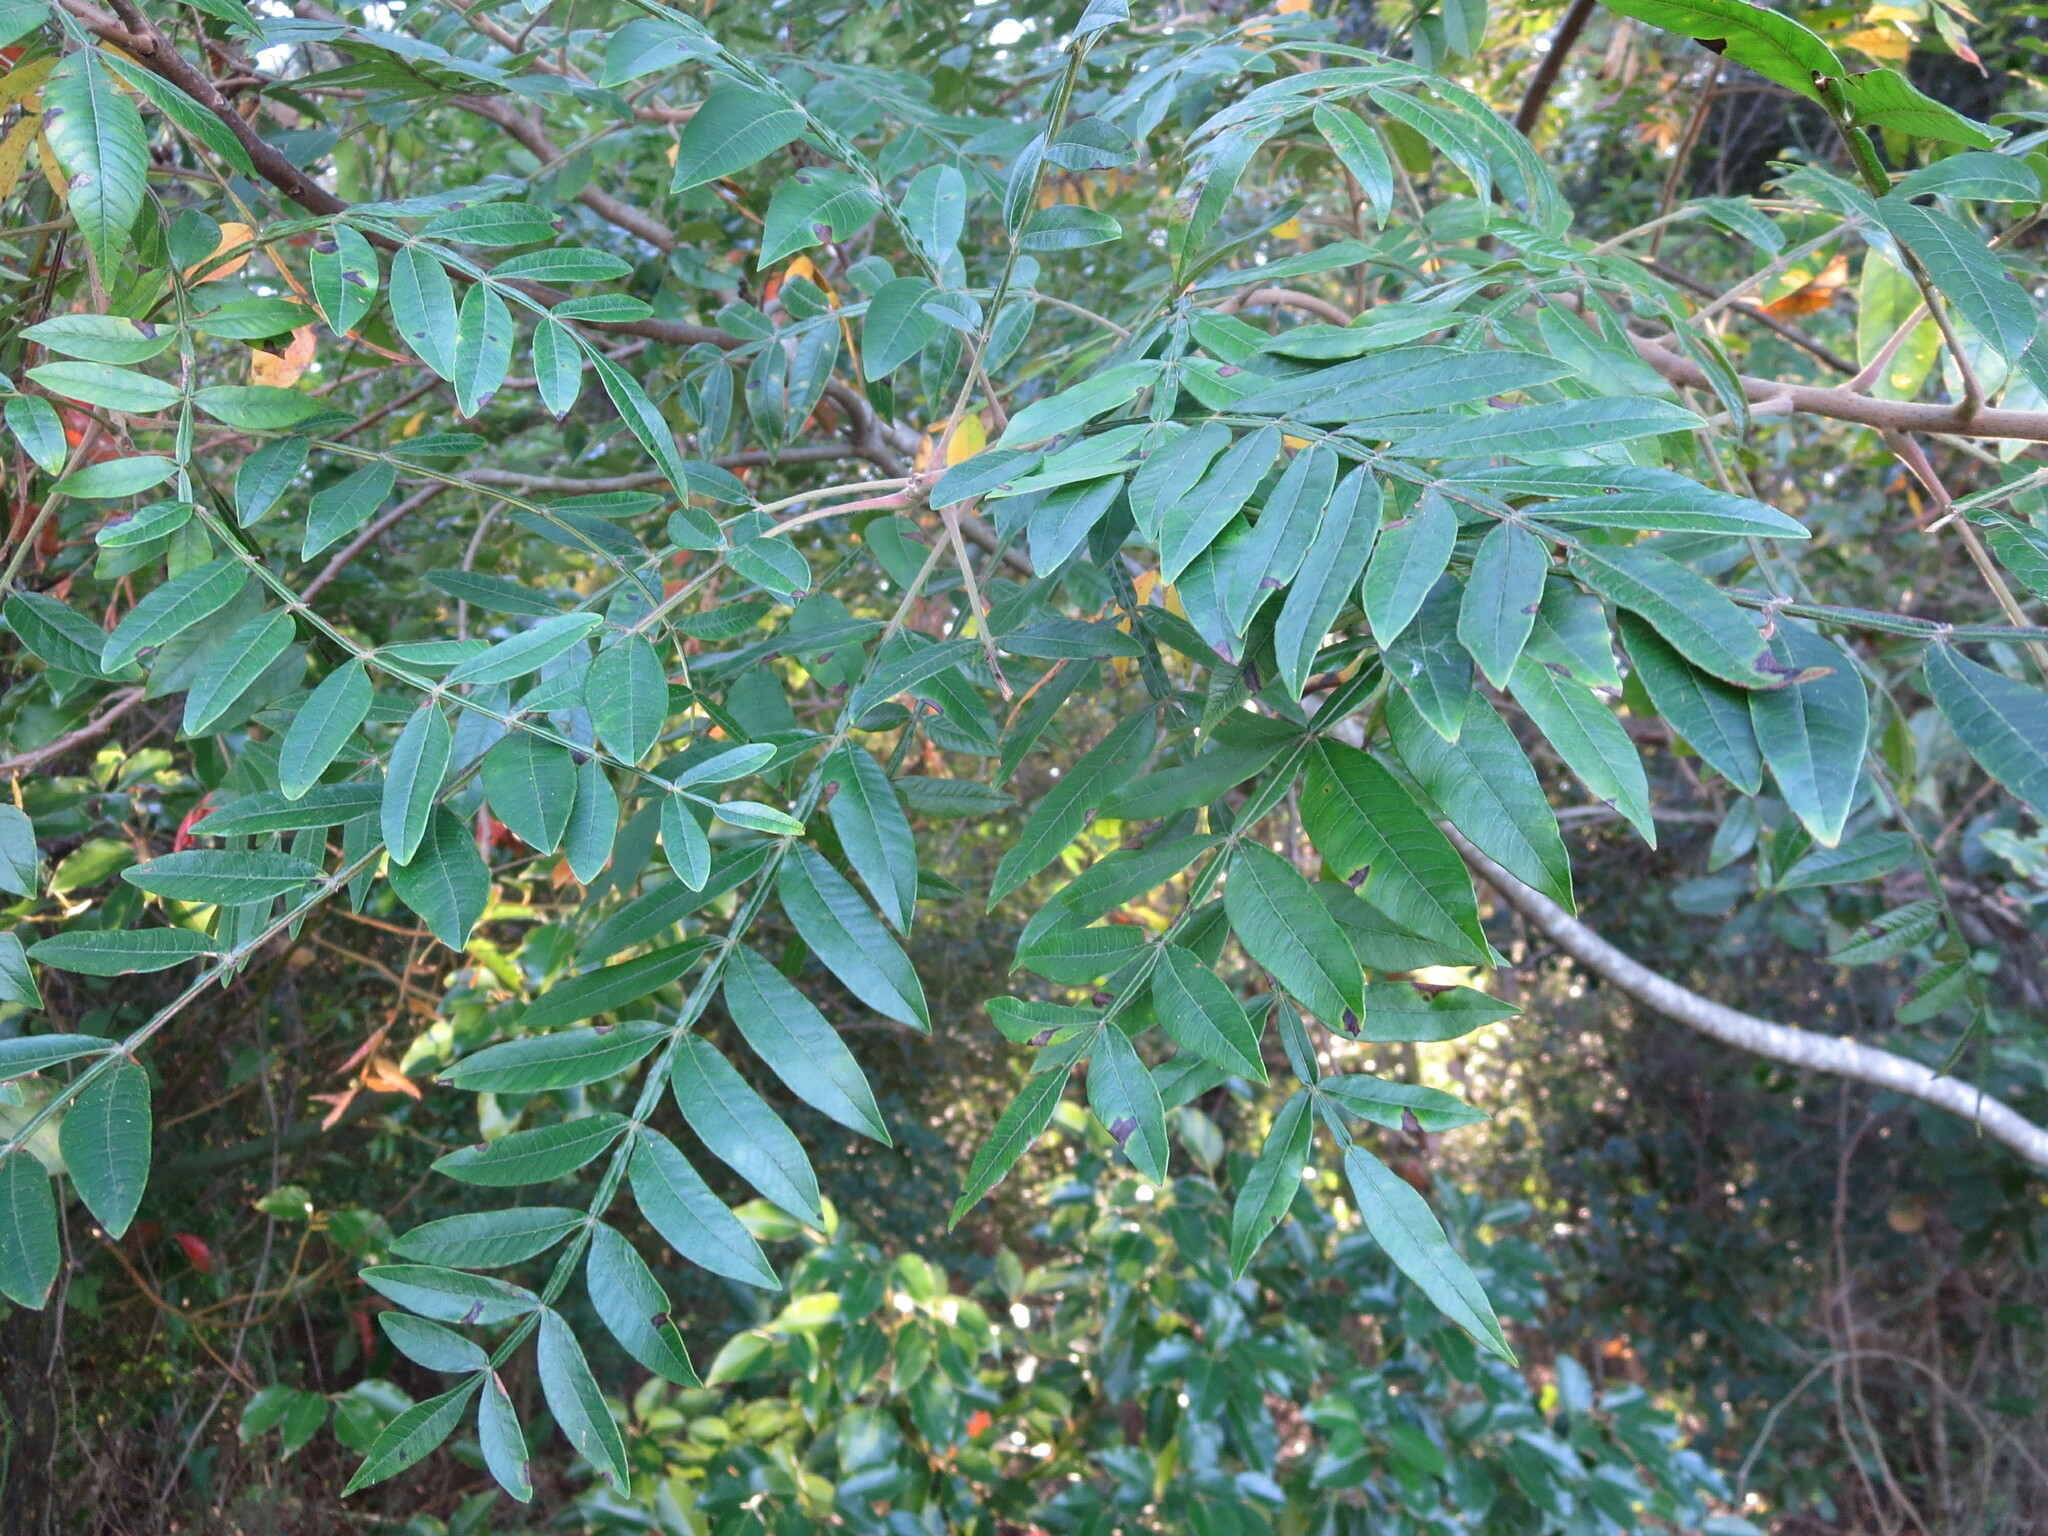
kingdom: Plantae
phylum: Tracheophyta
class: Magnoliopsida
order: Sapindales
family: Anacardiaceae
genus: Rhus
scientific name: Rhus copallina
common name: Shining sumac
